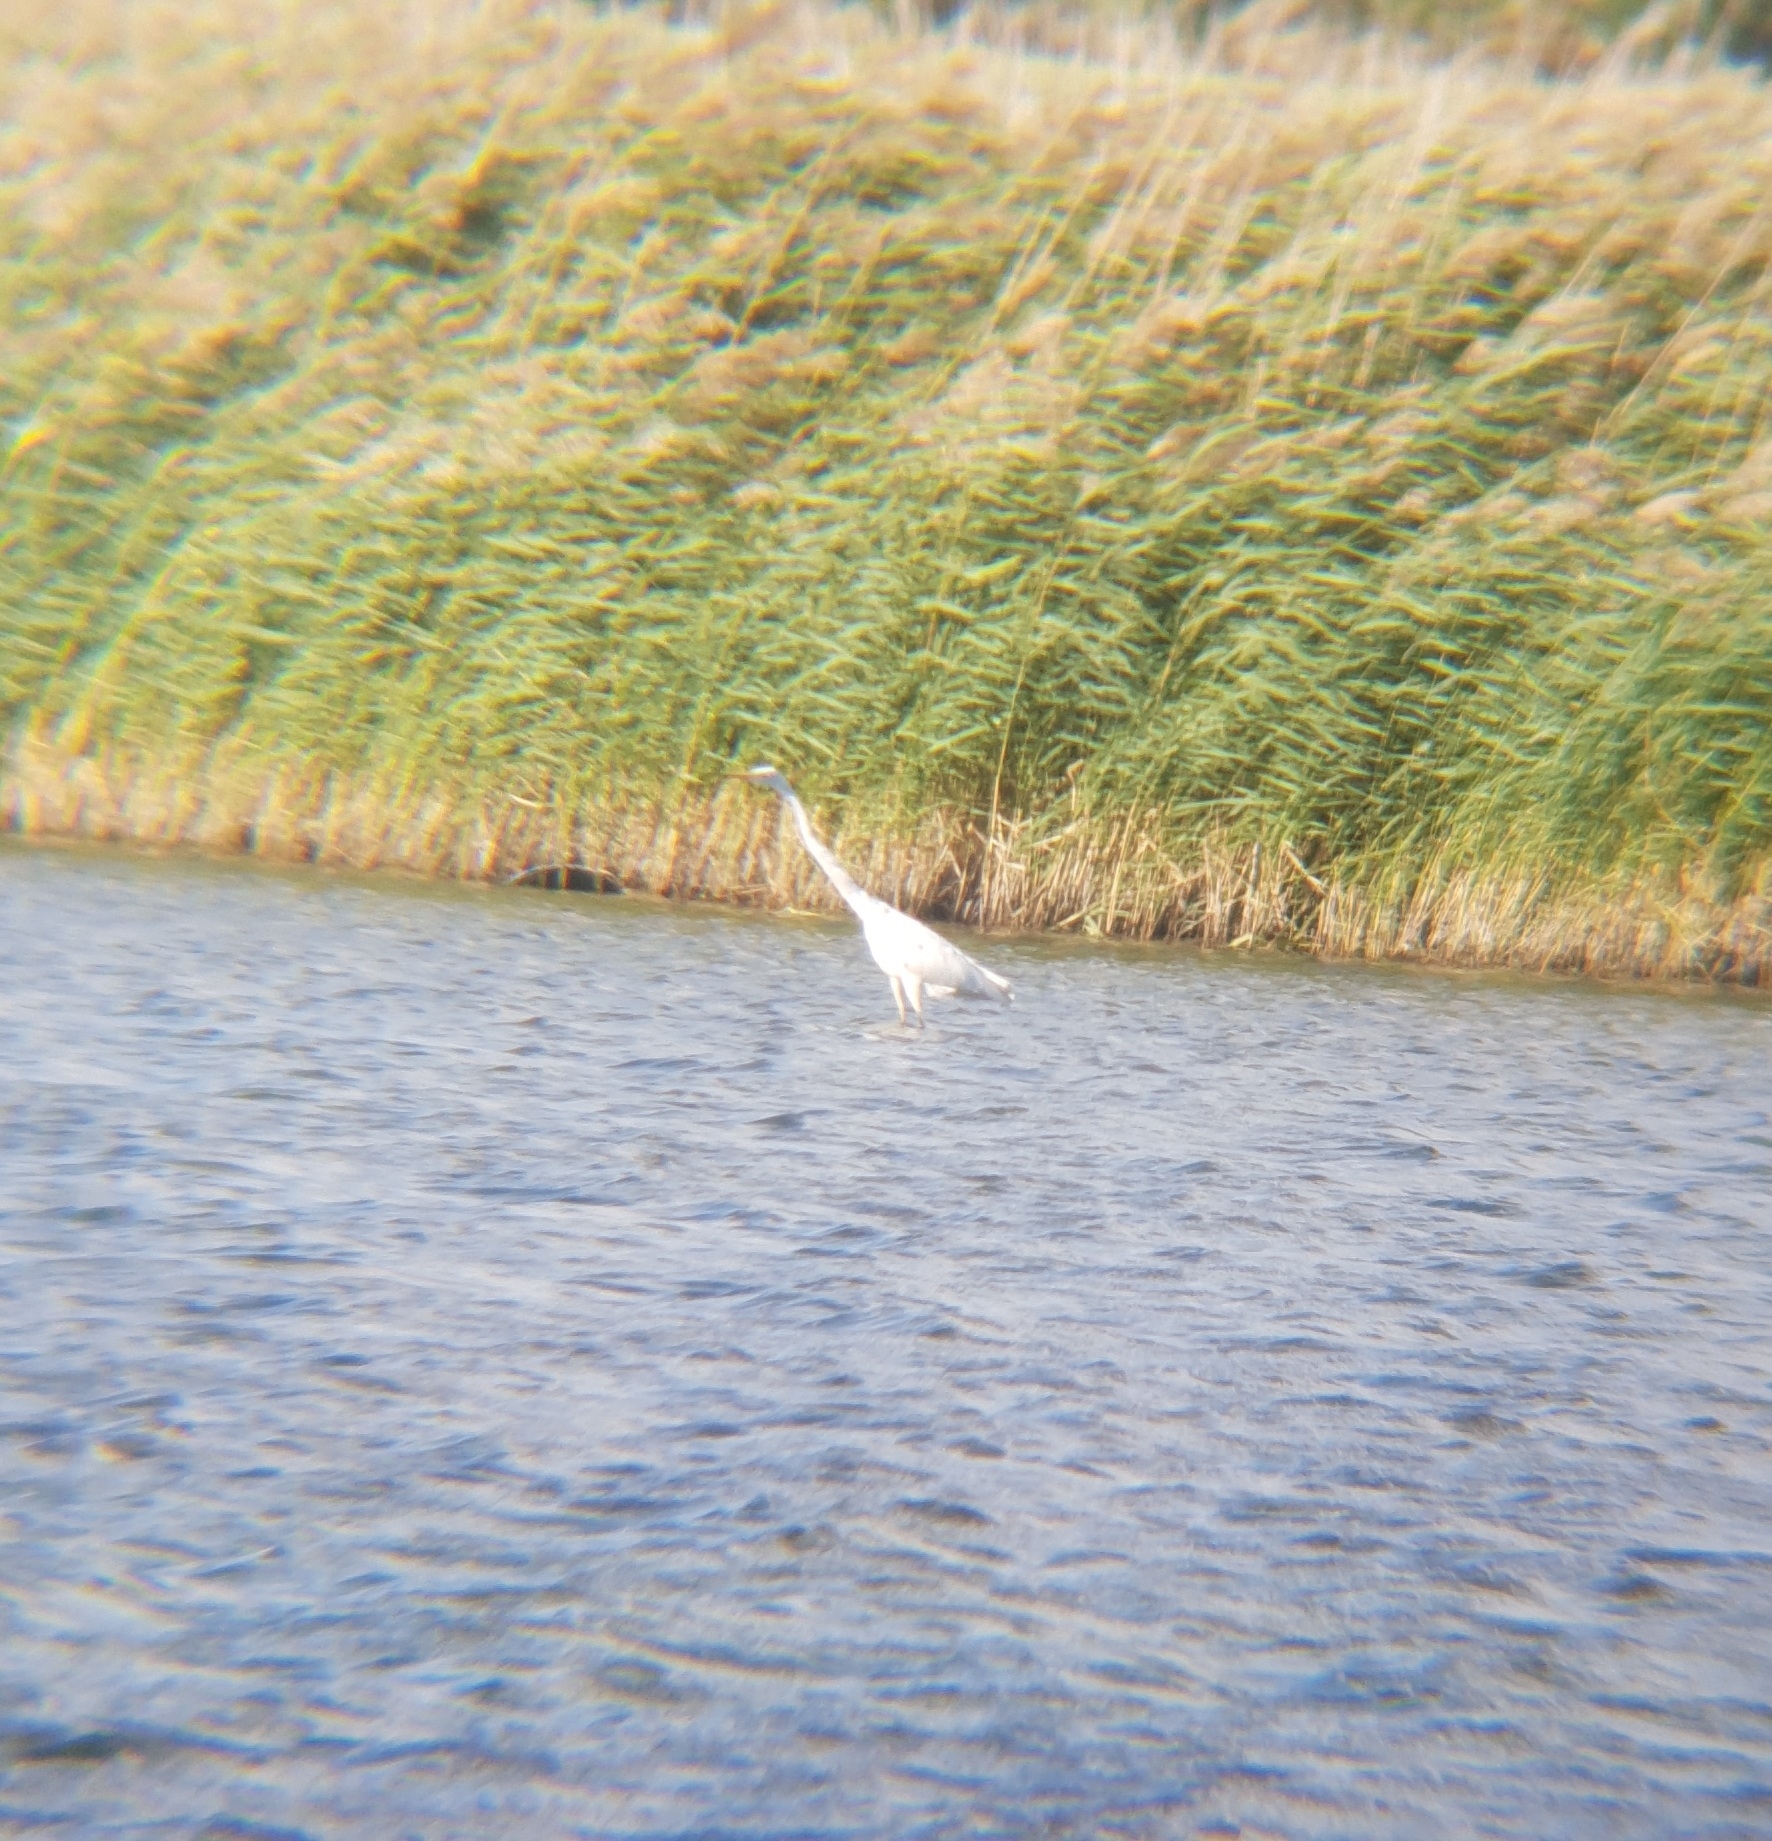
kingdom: Animalia
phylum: Chordata
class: Aves
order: Pelecaniformes
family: Ardeidae
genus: Ardea
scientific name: Ardea alba
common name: Great egret
